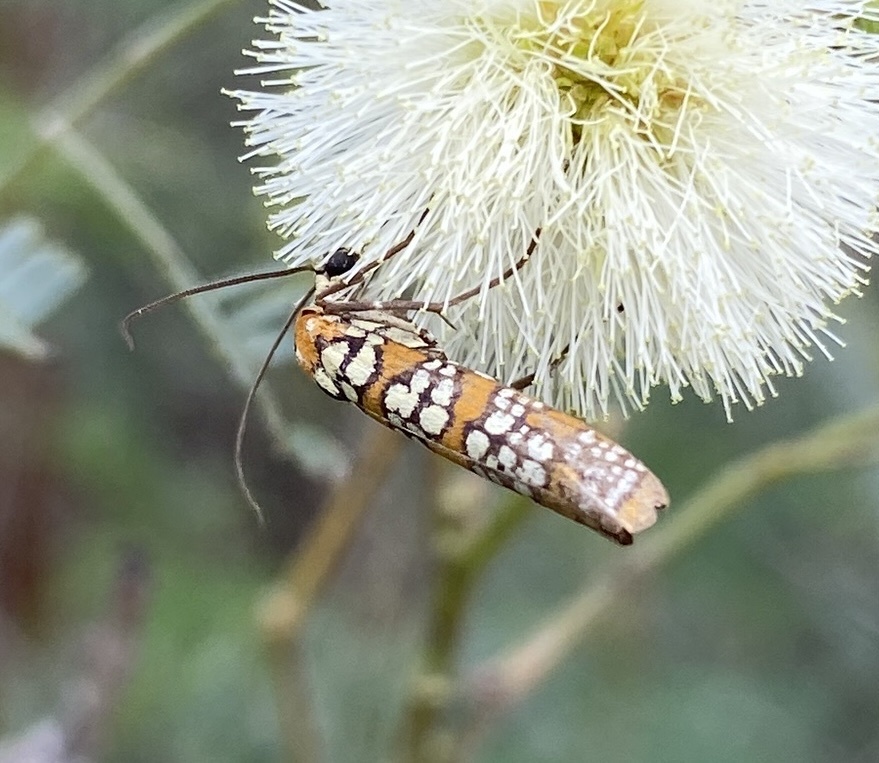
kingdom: Animalia
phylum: Arthropoda
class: Insecta
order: Lepidoptera
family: Attevidae
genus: Atteva
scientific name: Atteva punctella
